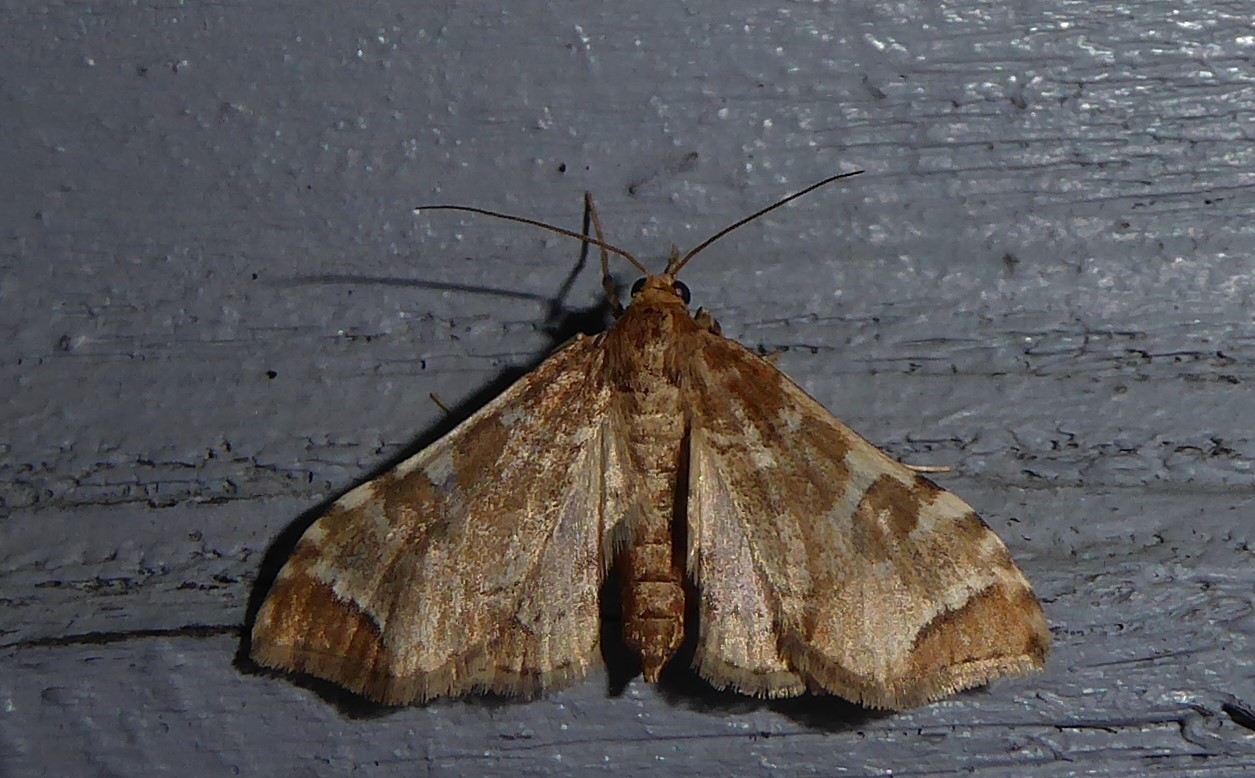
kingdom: Animalia
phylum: Arthropoda
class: Insecta
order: Lepidoptera
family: Crambidae
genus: Sceliodes
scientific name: Sceliodes cordalis
